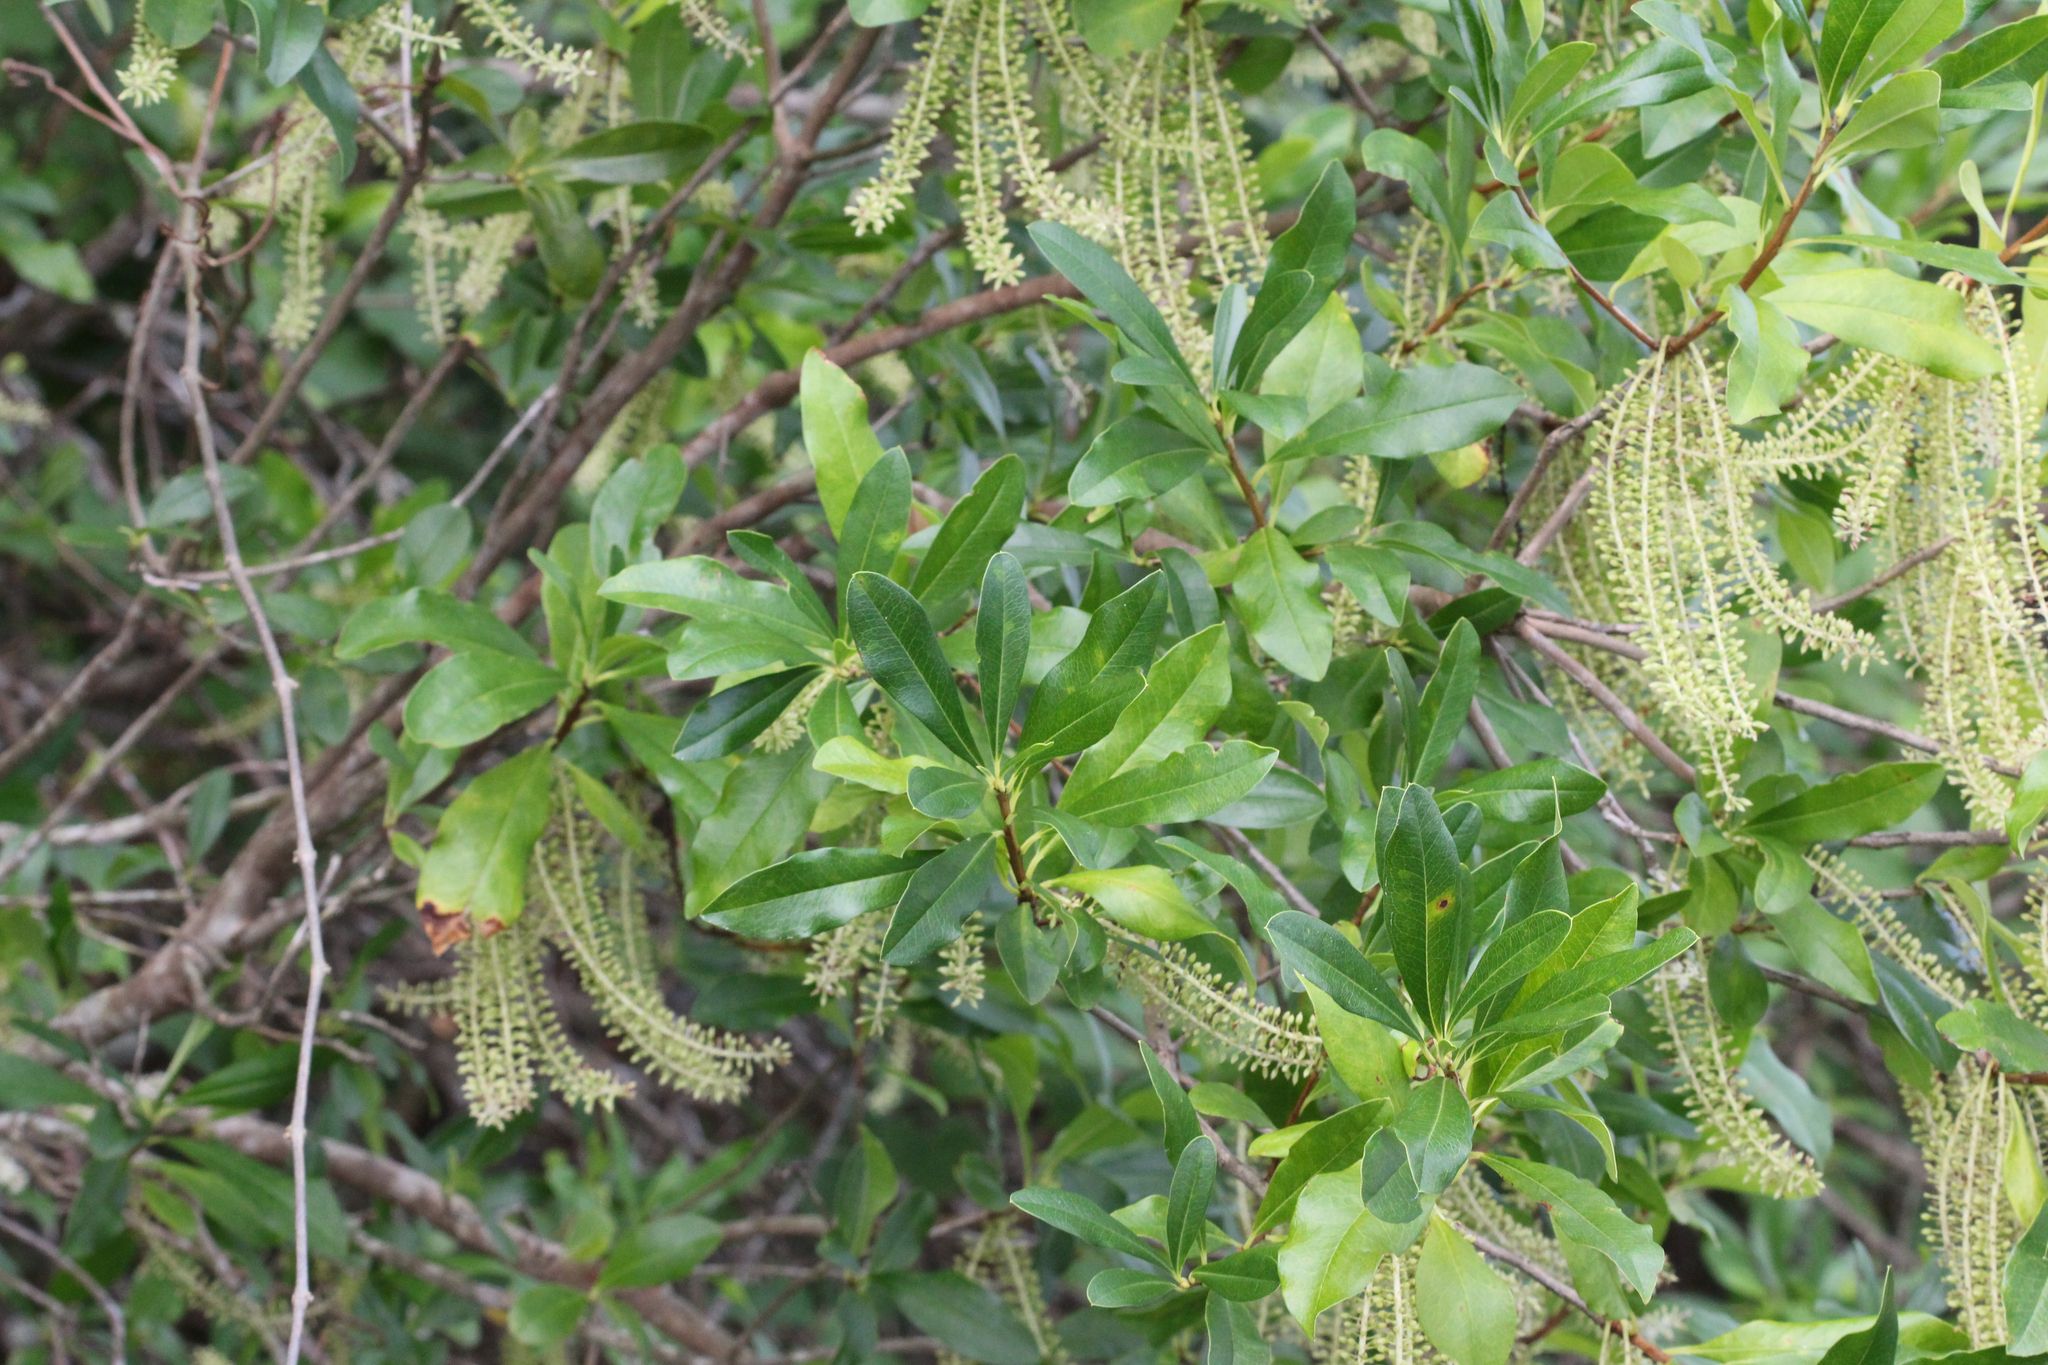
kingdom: Plantae
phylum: Tracheophyta
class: Magnoliopsida
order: Ericales
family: Cyrillaceae
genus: Cyrilla
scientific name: Cyrilla racemiflora
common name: Black titi
